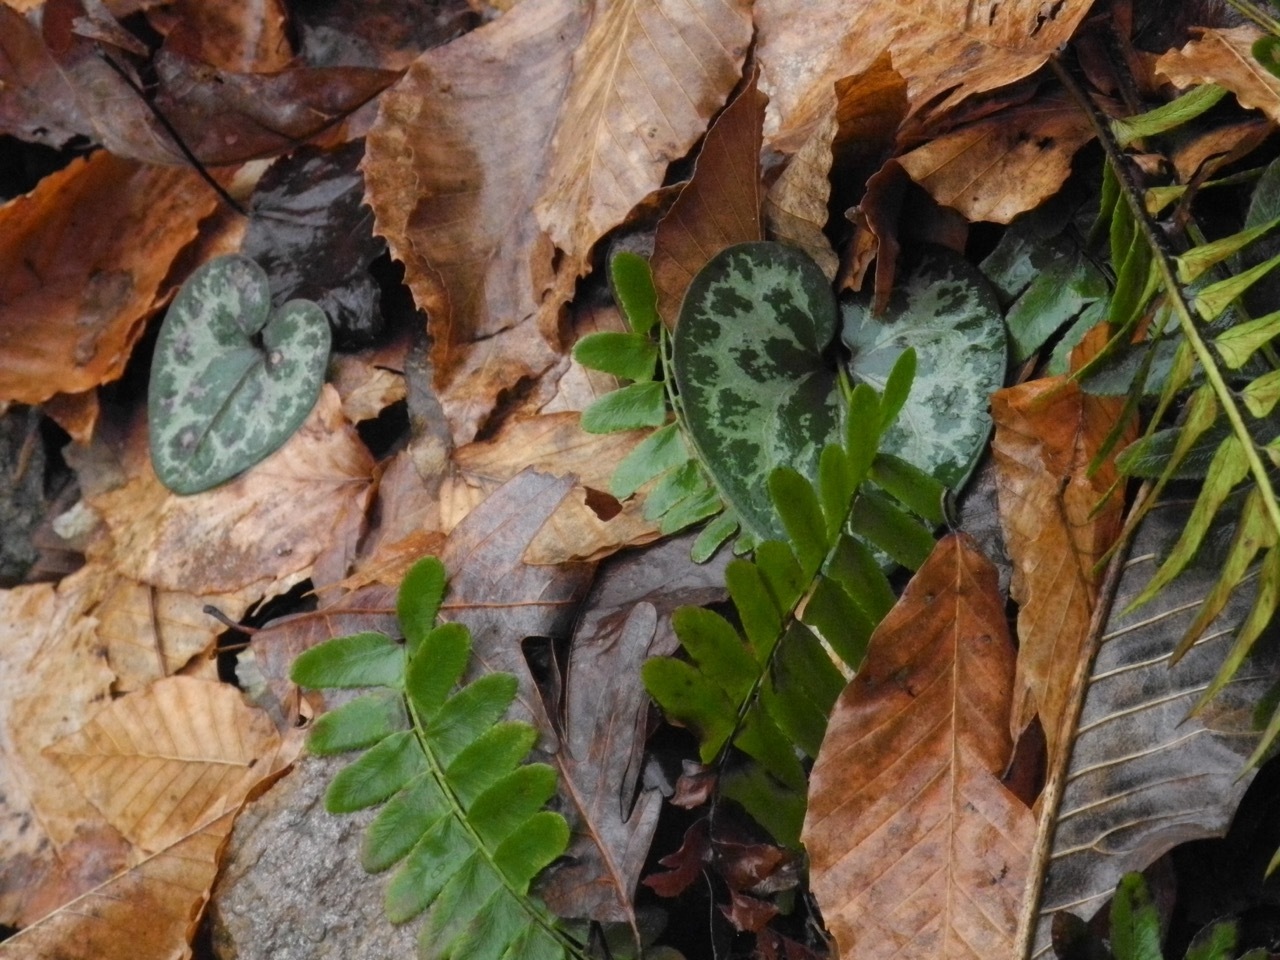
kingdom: Plantae
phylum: Tracheophyta
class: Magnoliopsida
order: Piperales
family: Aristolochiaceae
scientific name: Aristolochiaceae
